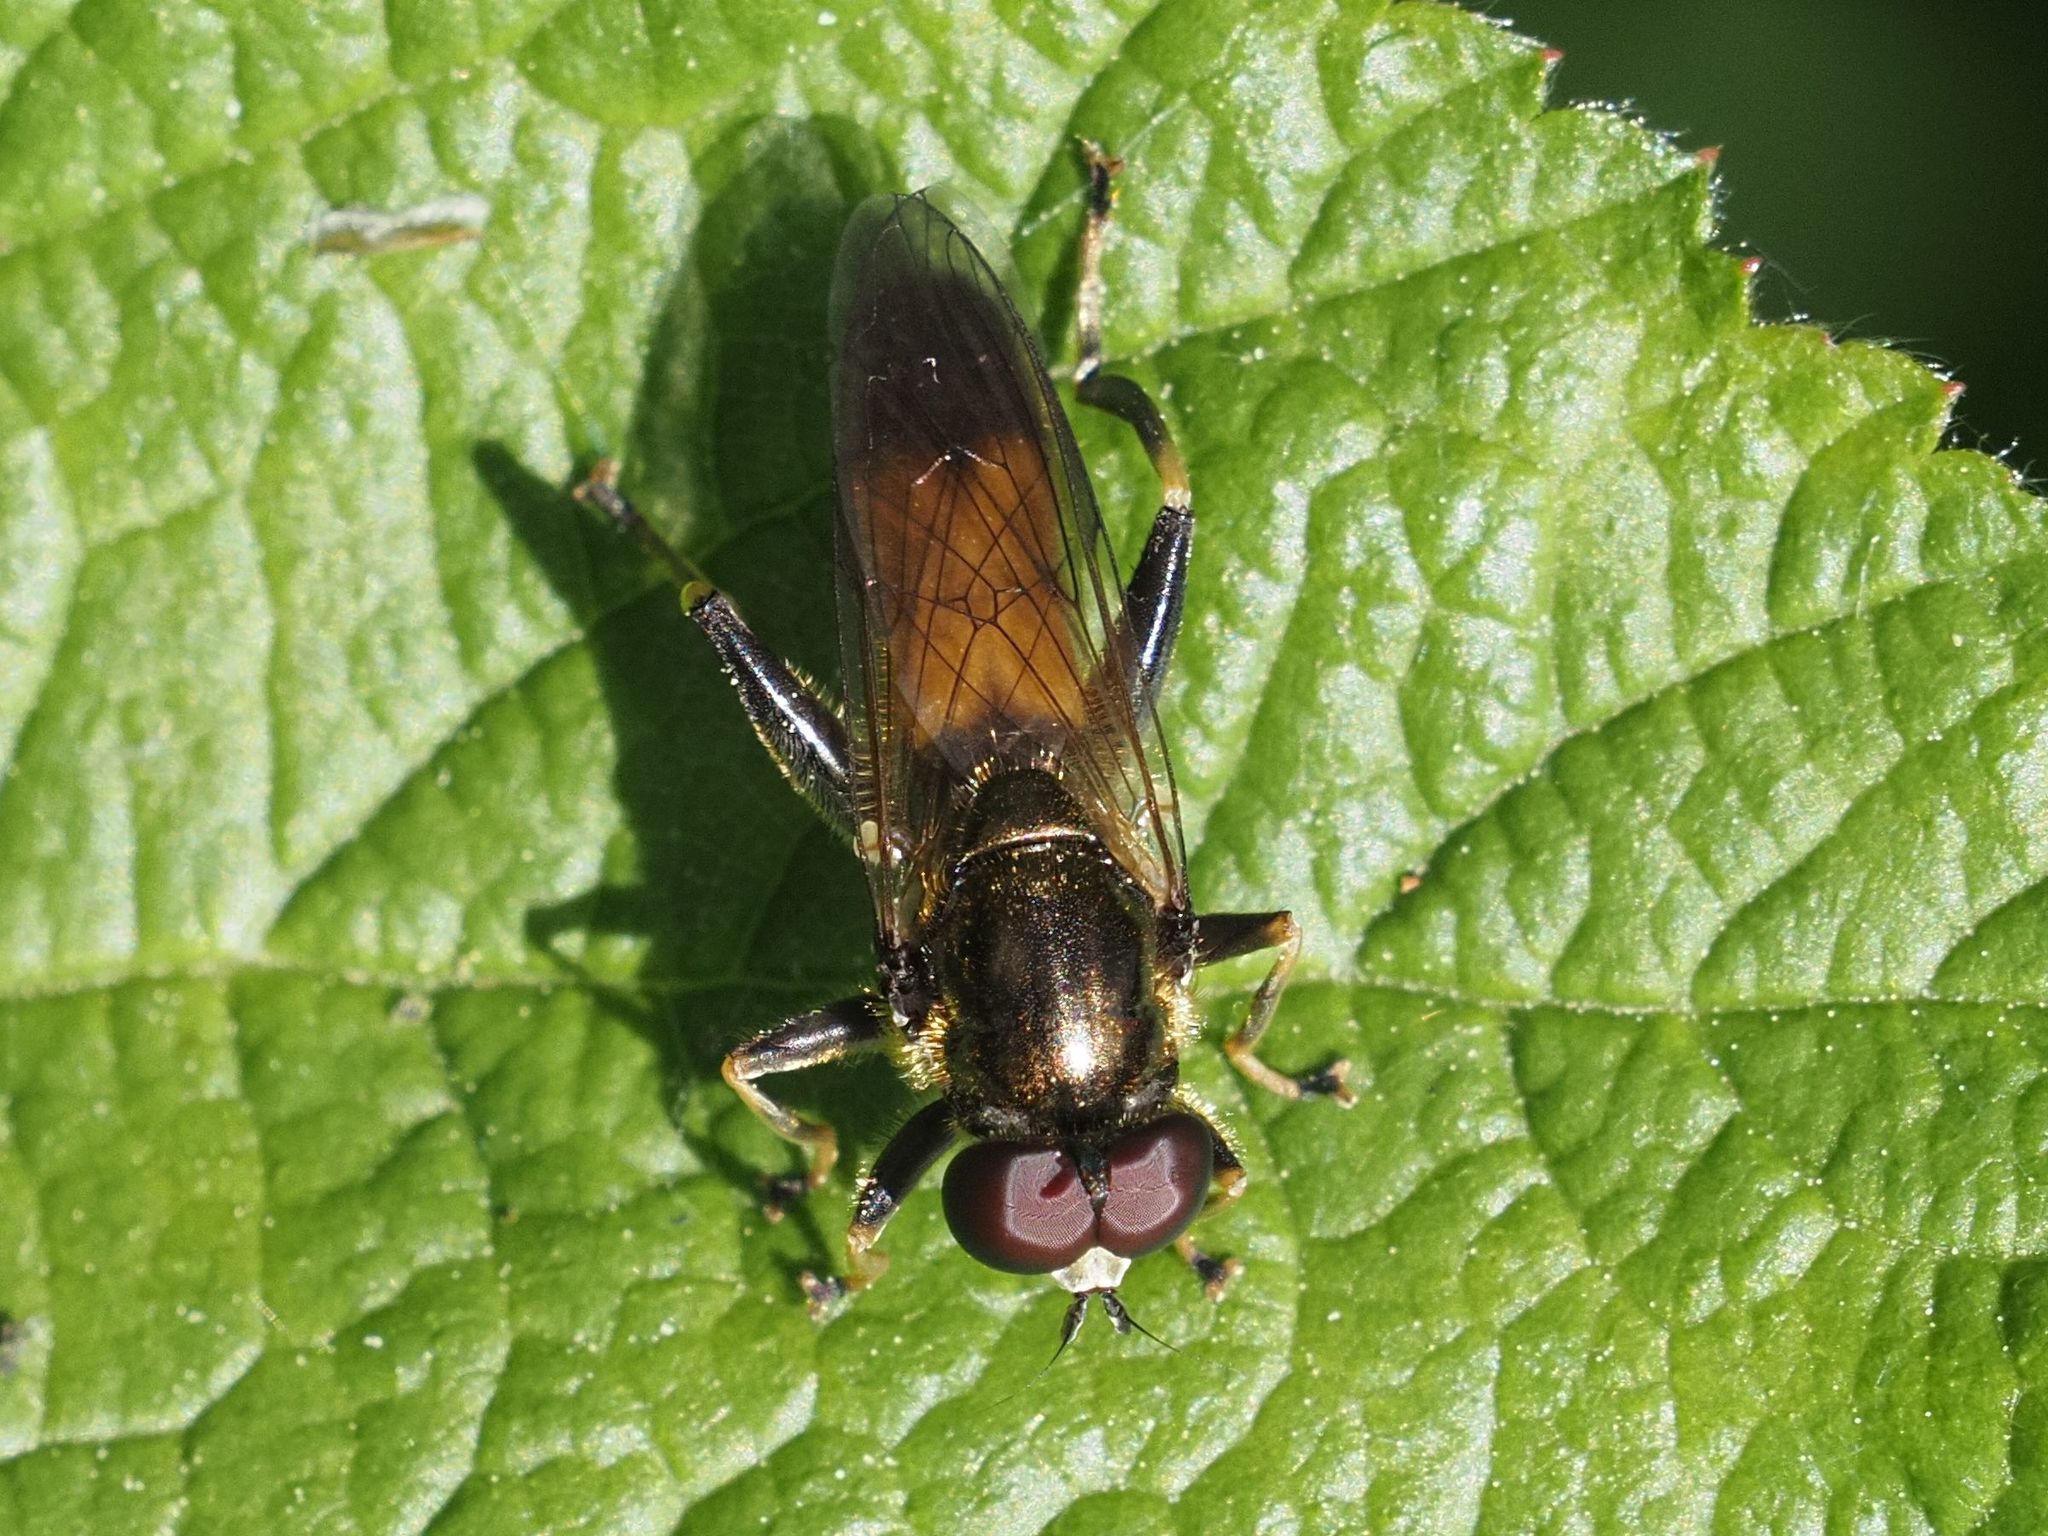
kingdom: Animalia
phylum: Arthropoda
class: Insecta
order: Diptera
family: Syrphidae
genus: Xylota
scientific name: Xylota segnis
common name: Brown-toed forest fly
